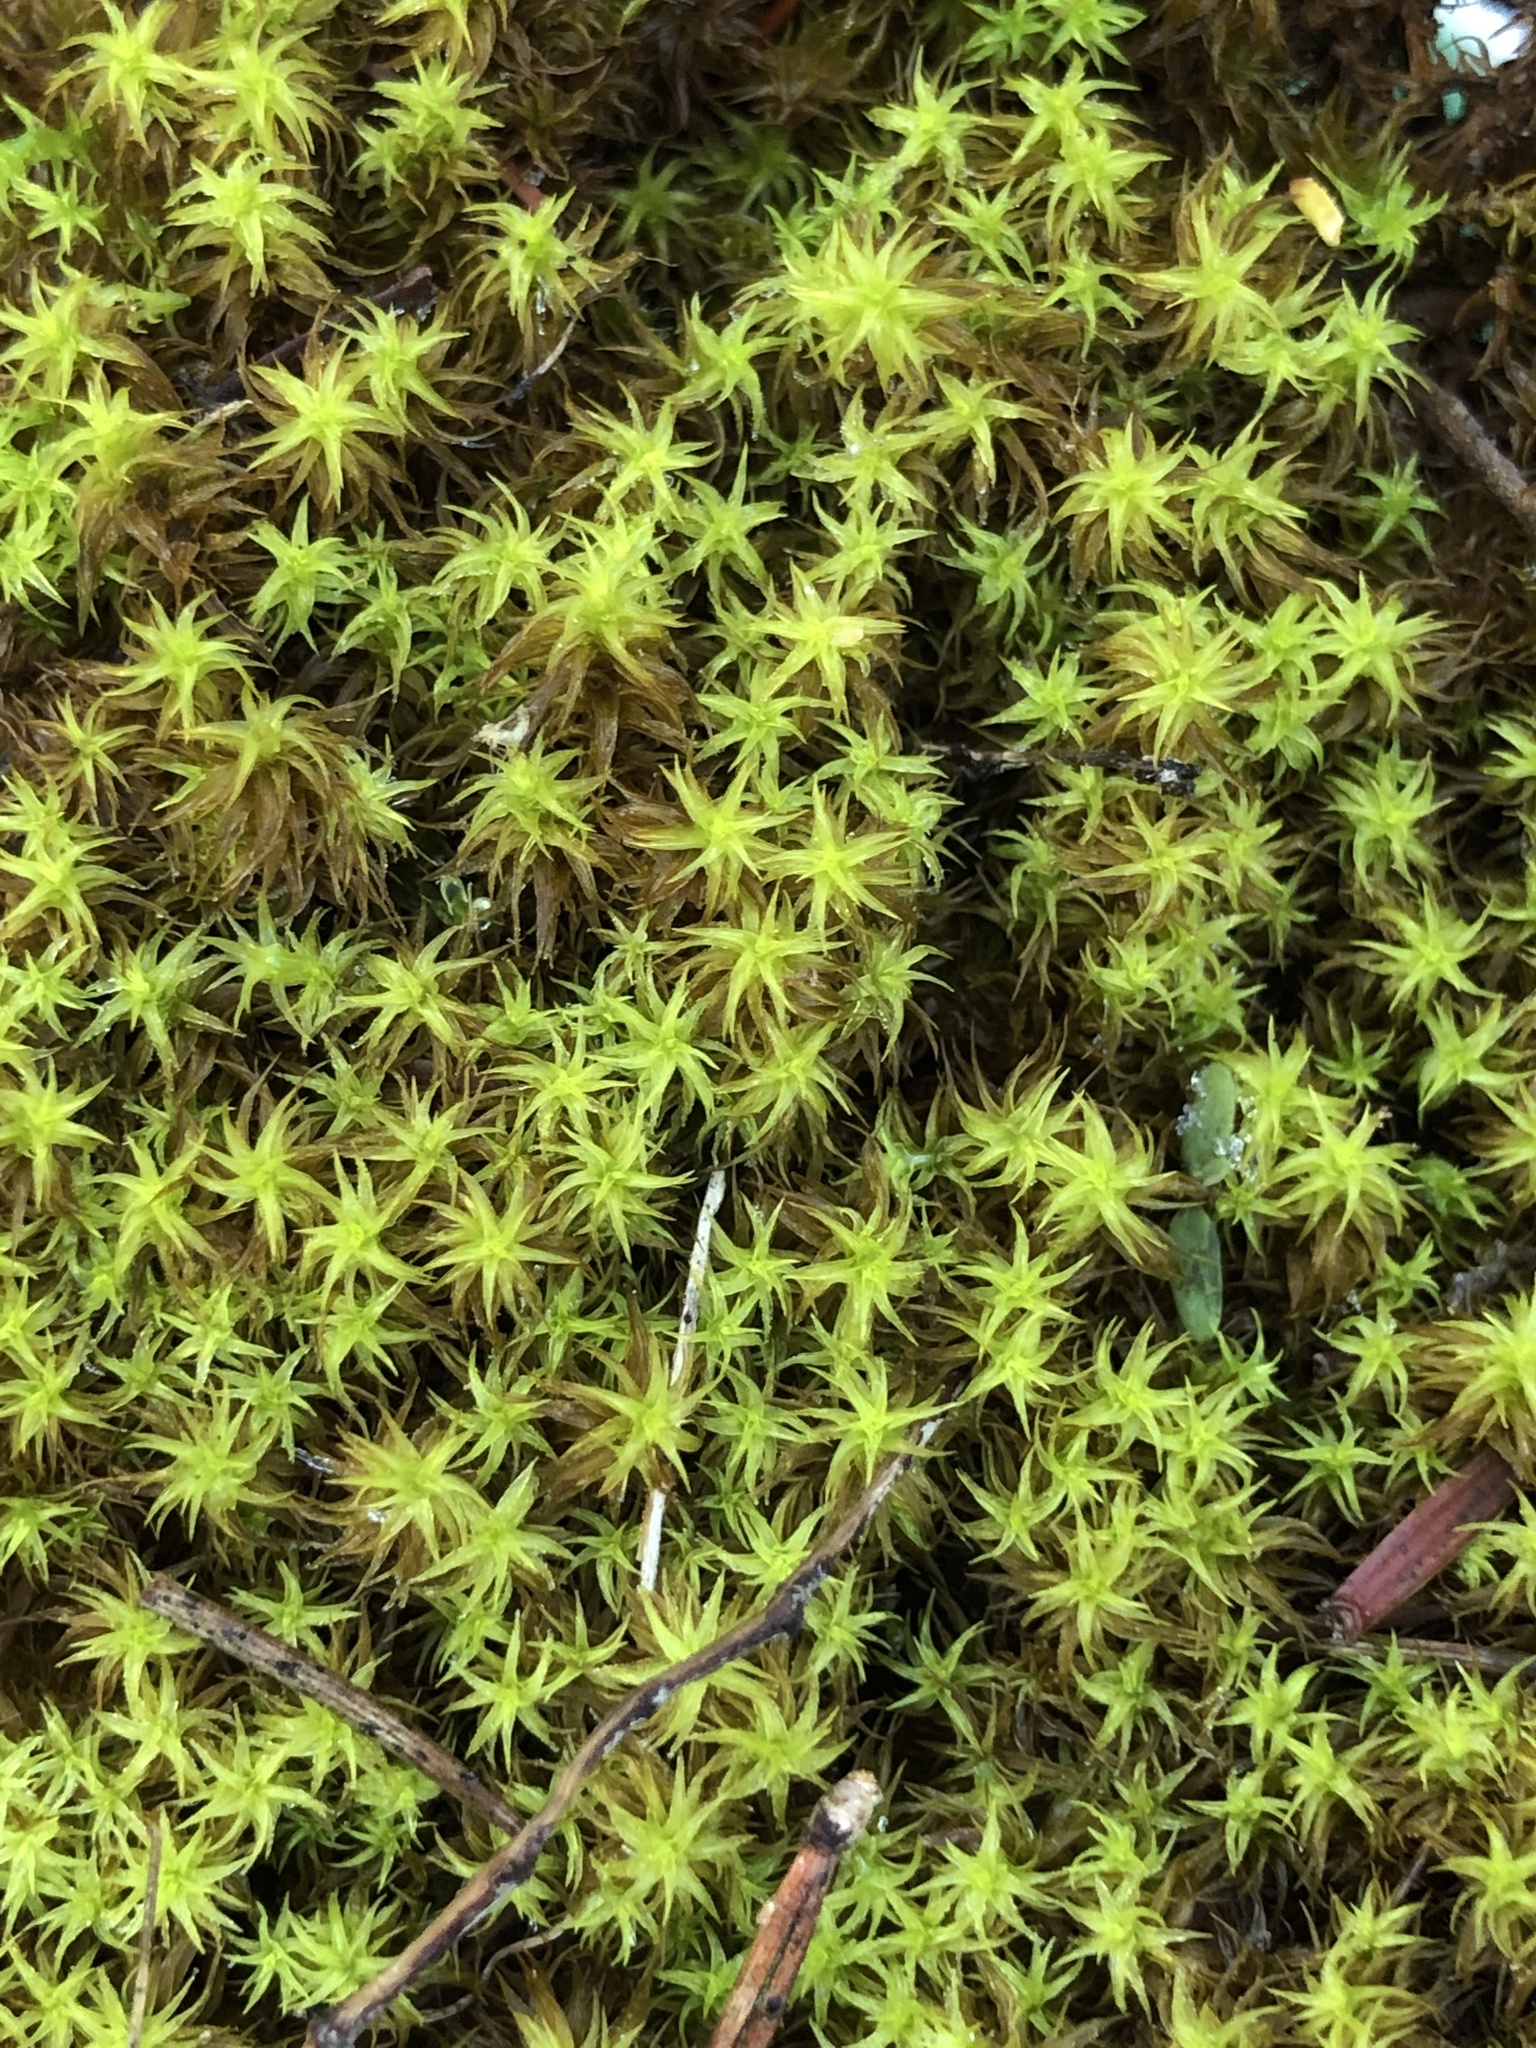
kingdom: Plantae
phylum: Bryophyta
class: Bryopsida
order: Pottiales
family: Pottiaceae
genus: Pleurochaete
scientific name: Pleurochaete squarrosa
